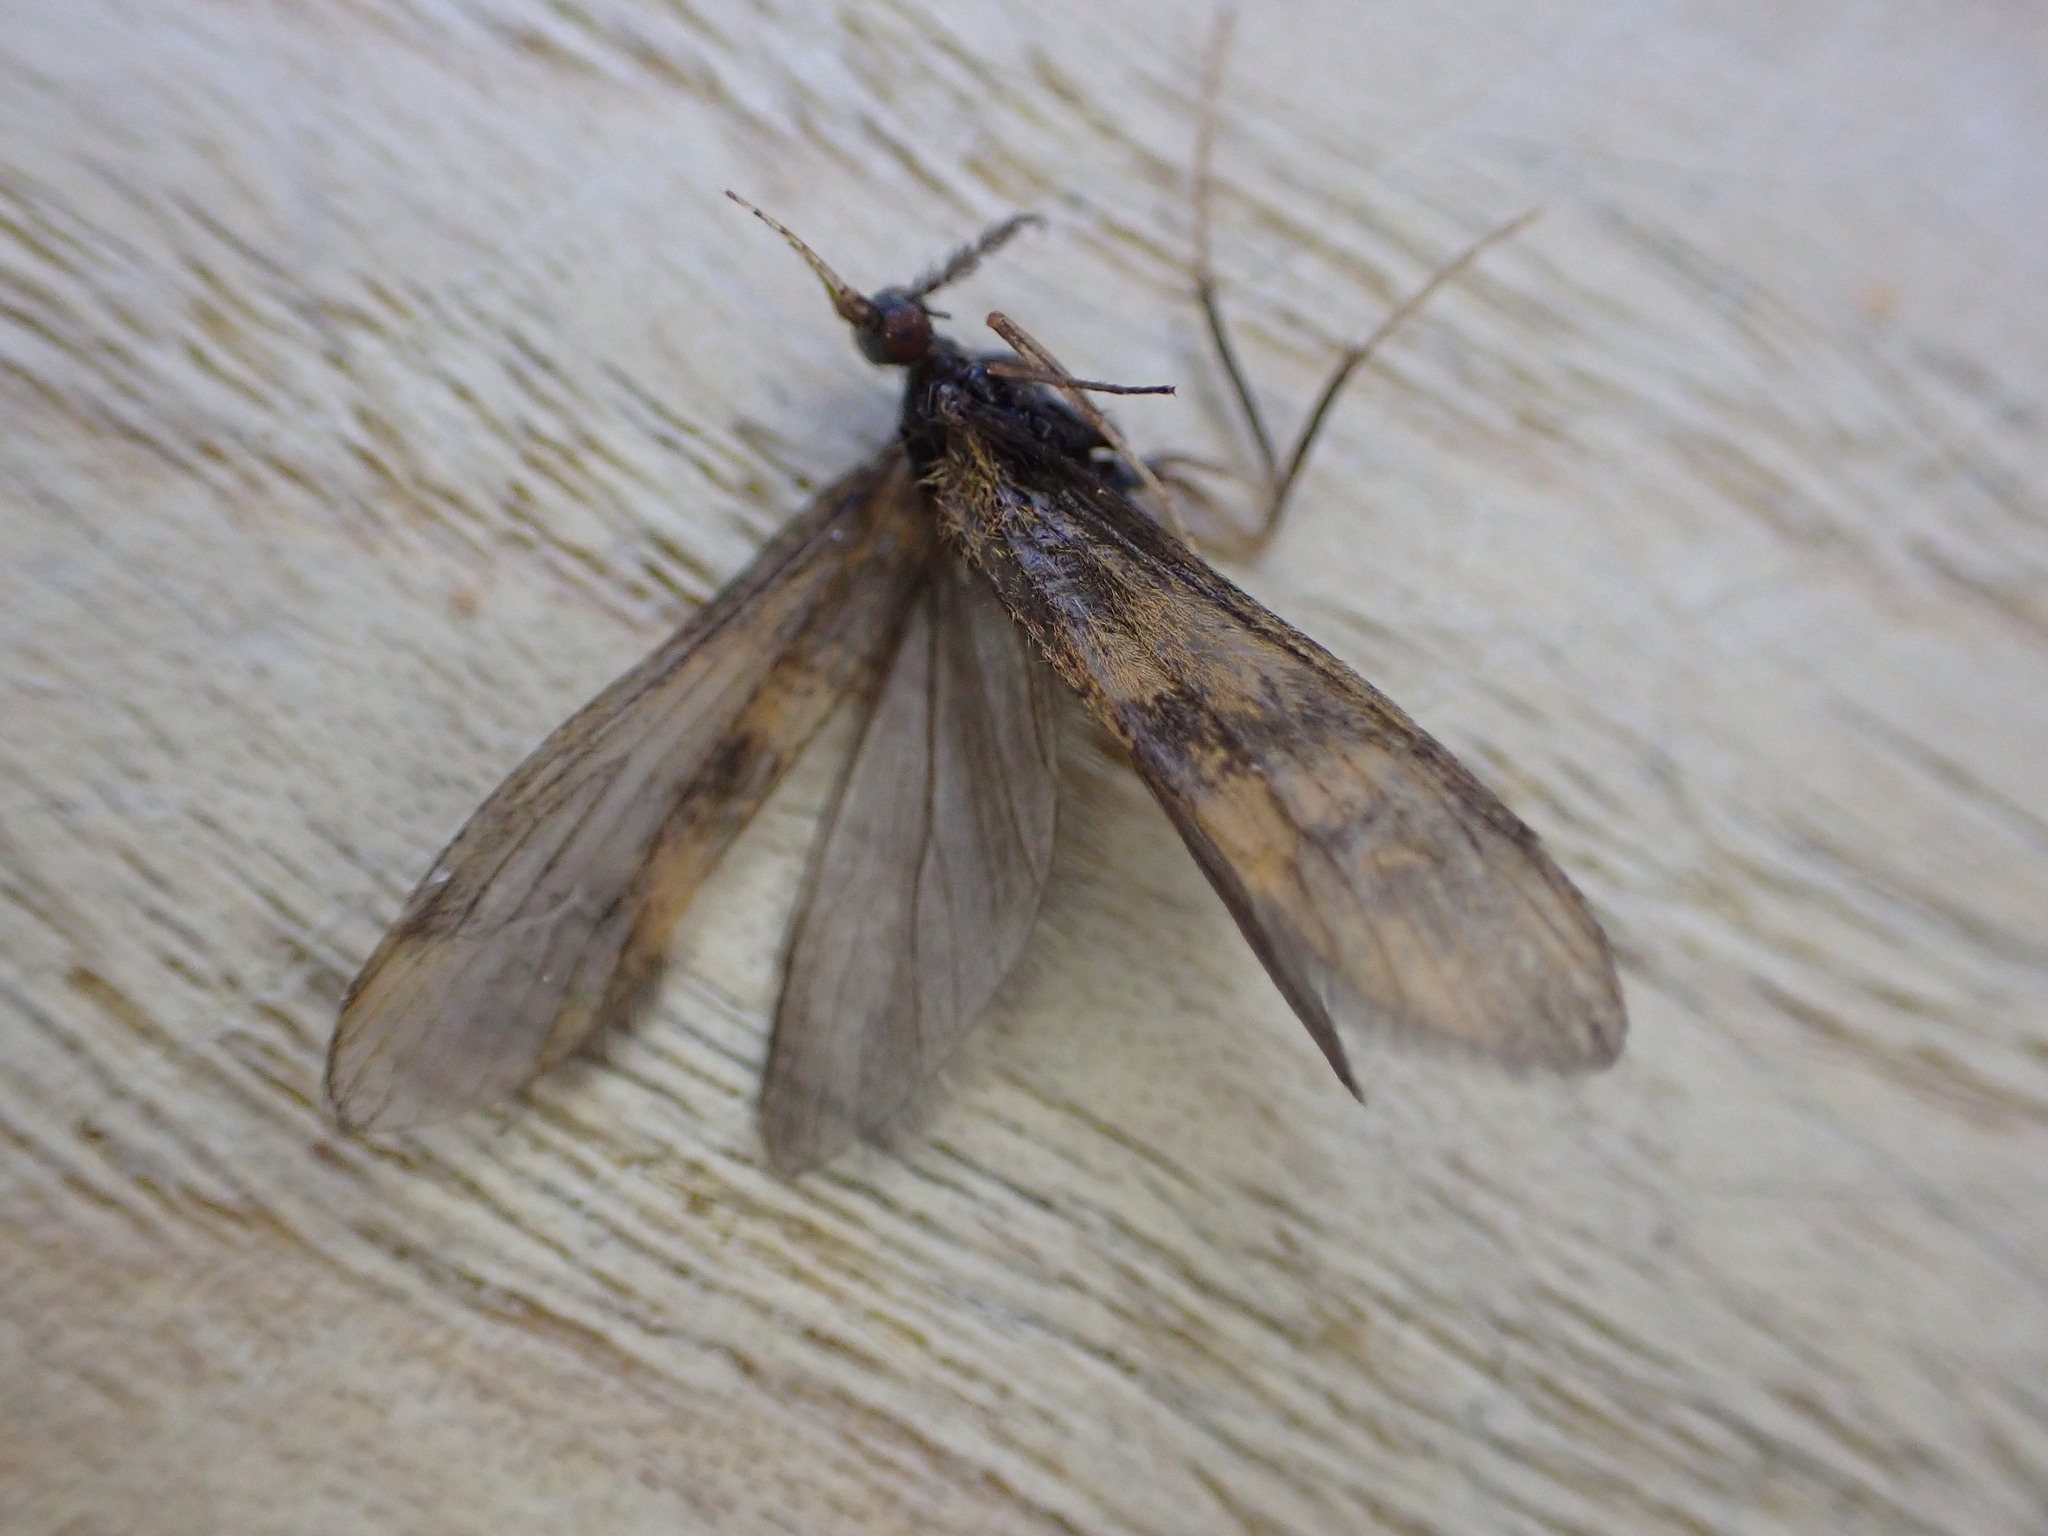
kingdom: Animalia
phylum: Arthropoda
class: Insecta
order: Trichoptera
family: Leptoceridae
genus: Mystacides
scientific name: Mystacides longicornis
